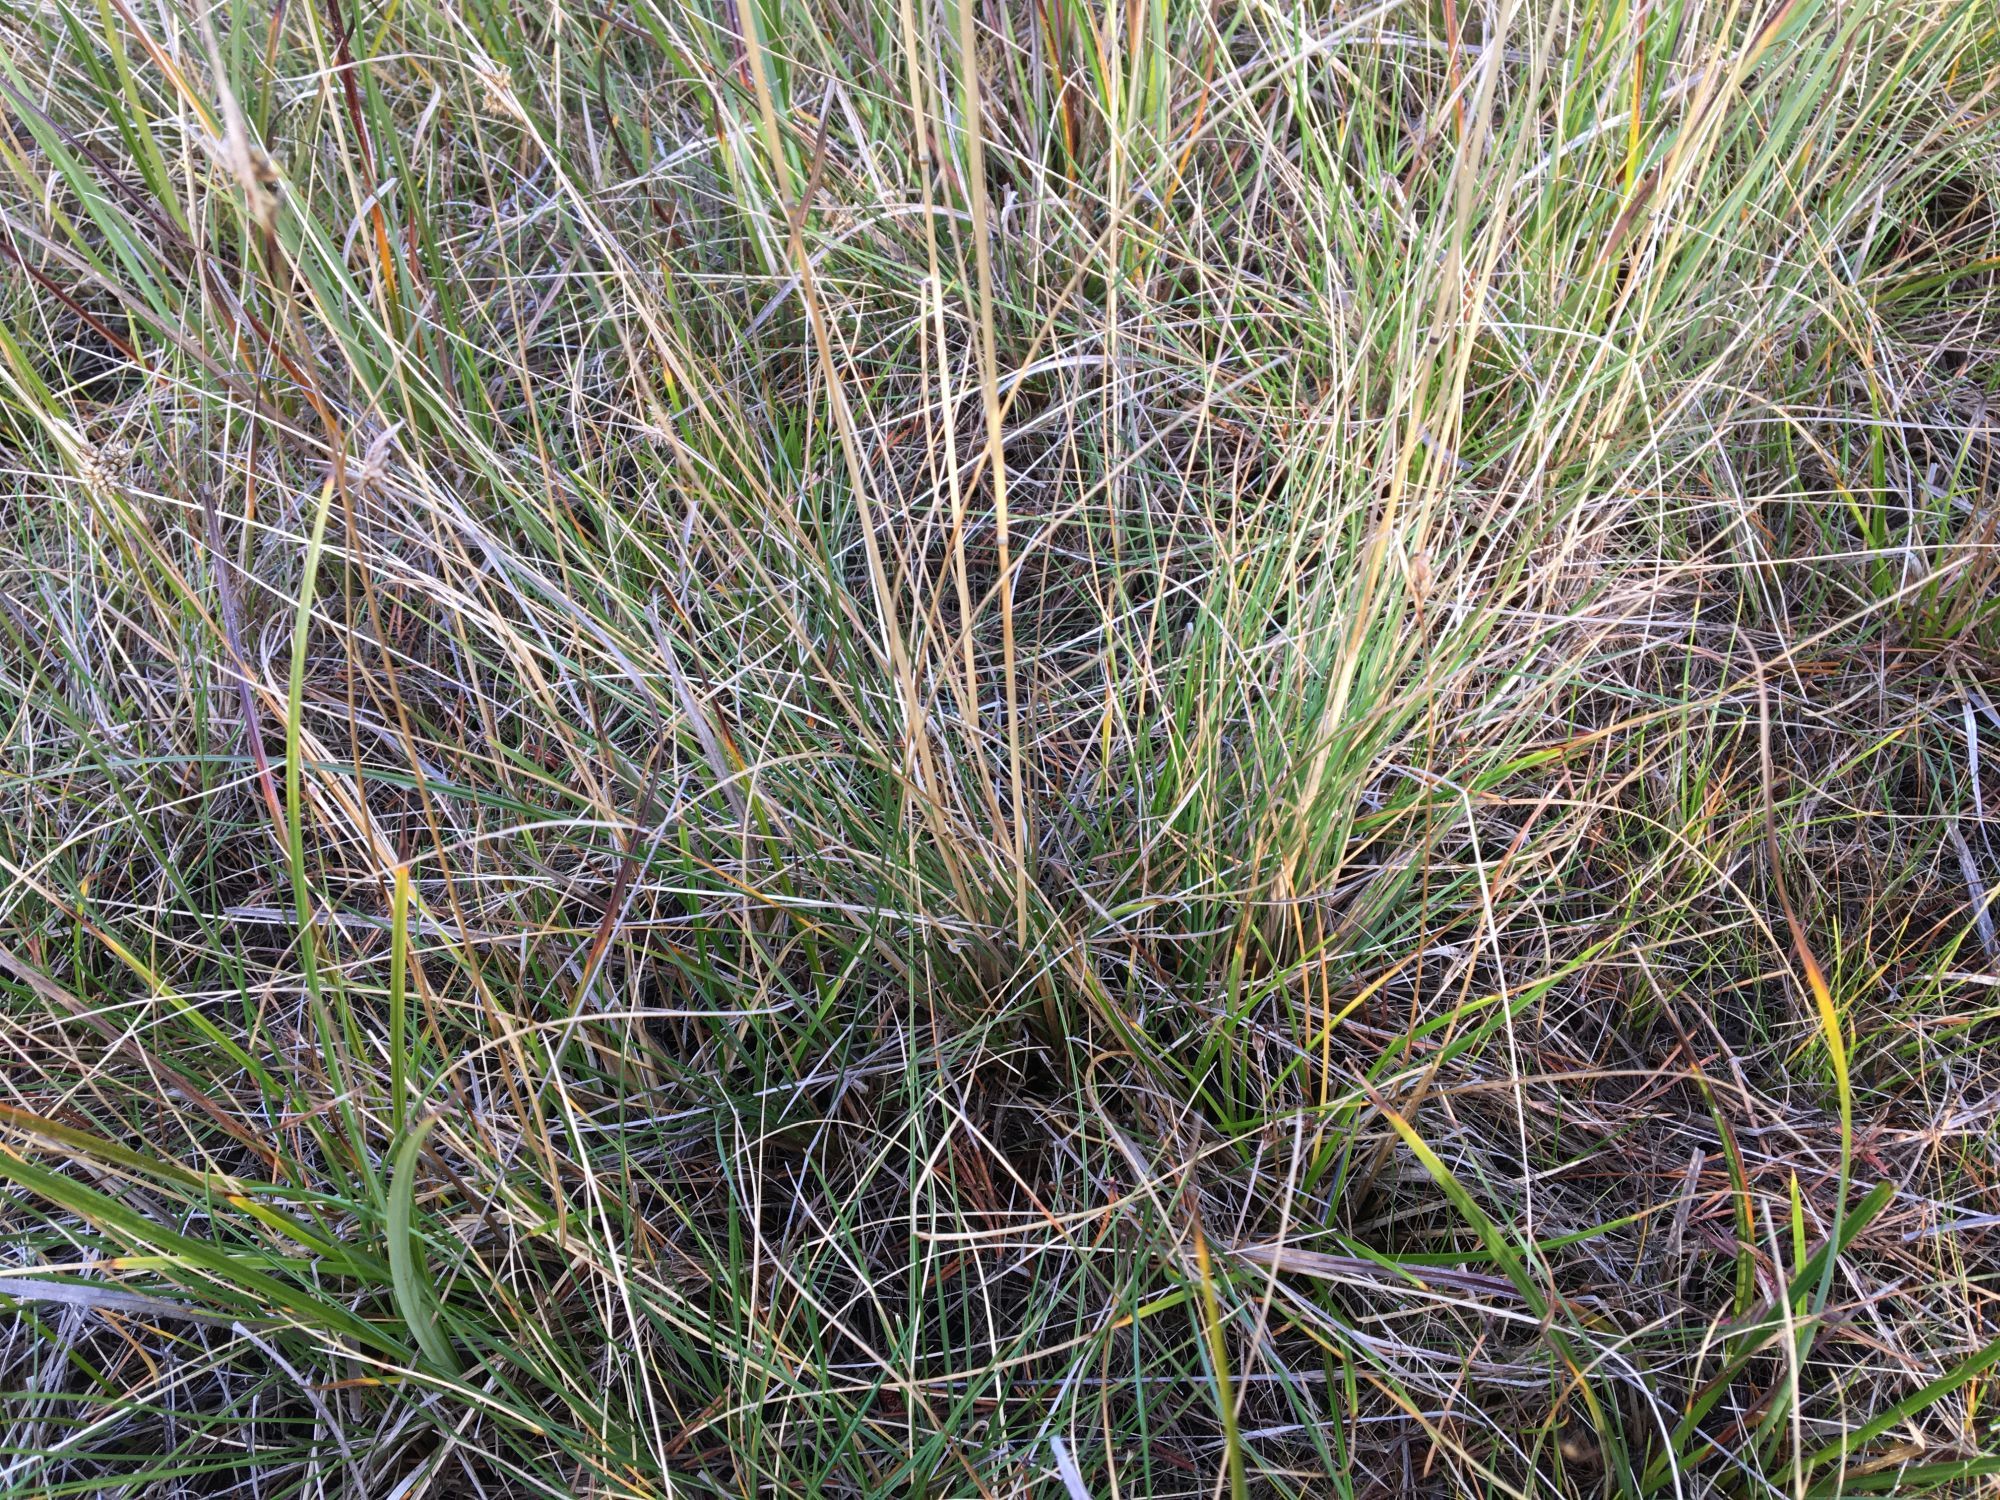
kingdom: Plantae
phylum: Tracheophyta
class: Liliopsida
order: Poales
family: Poaceae
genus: Deschampsia
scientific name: Deschampsia cespitosa
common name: Tufted hair-grass
